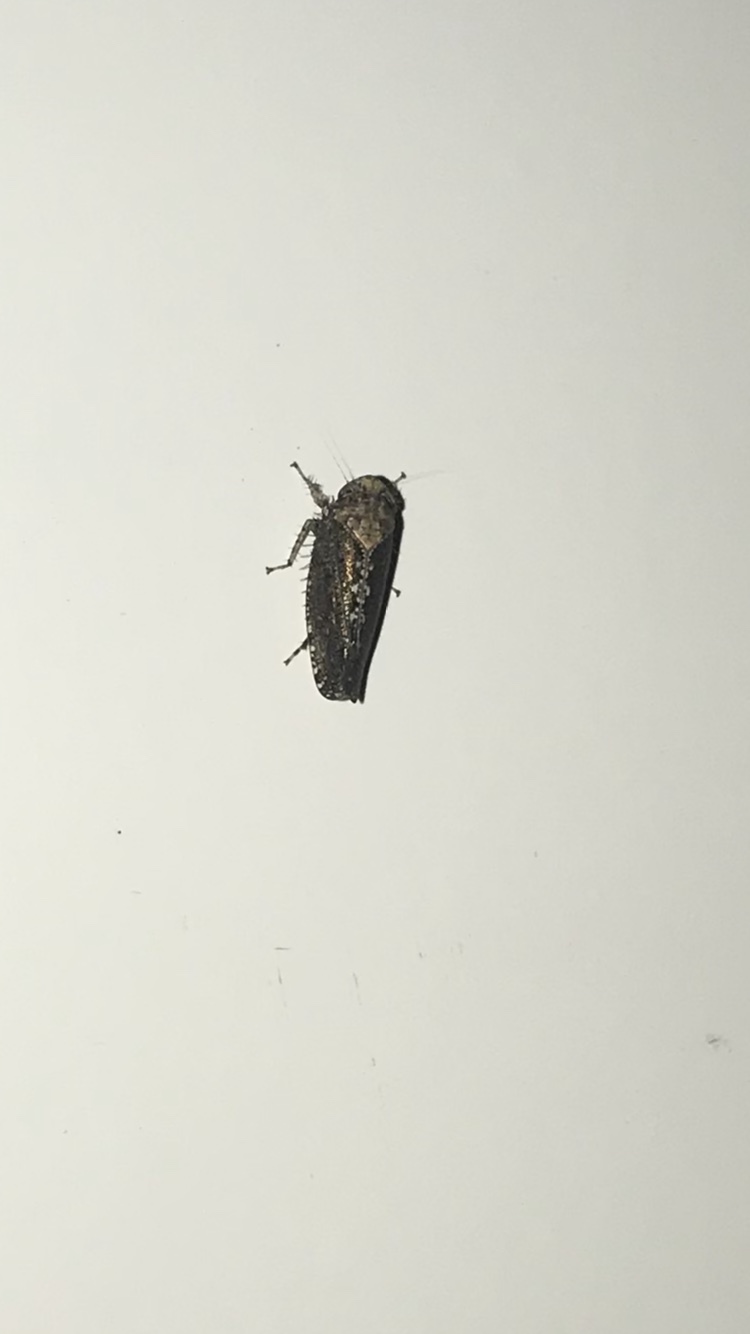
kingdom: Animalia
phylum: Arthropoda
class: Insecta
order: Hemiptera
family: Cicadellidae
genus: Excultanus
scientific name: Excultanus excultus
